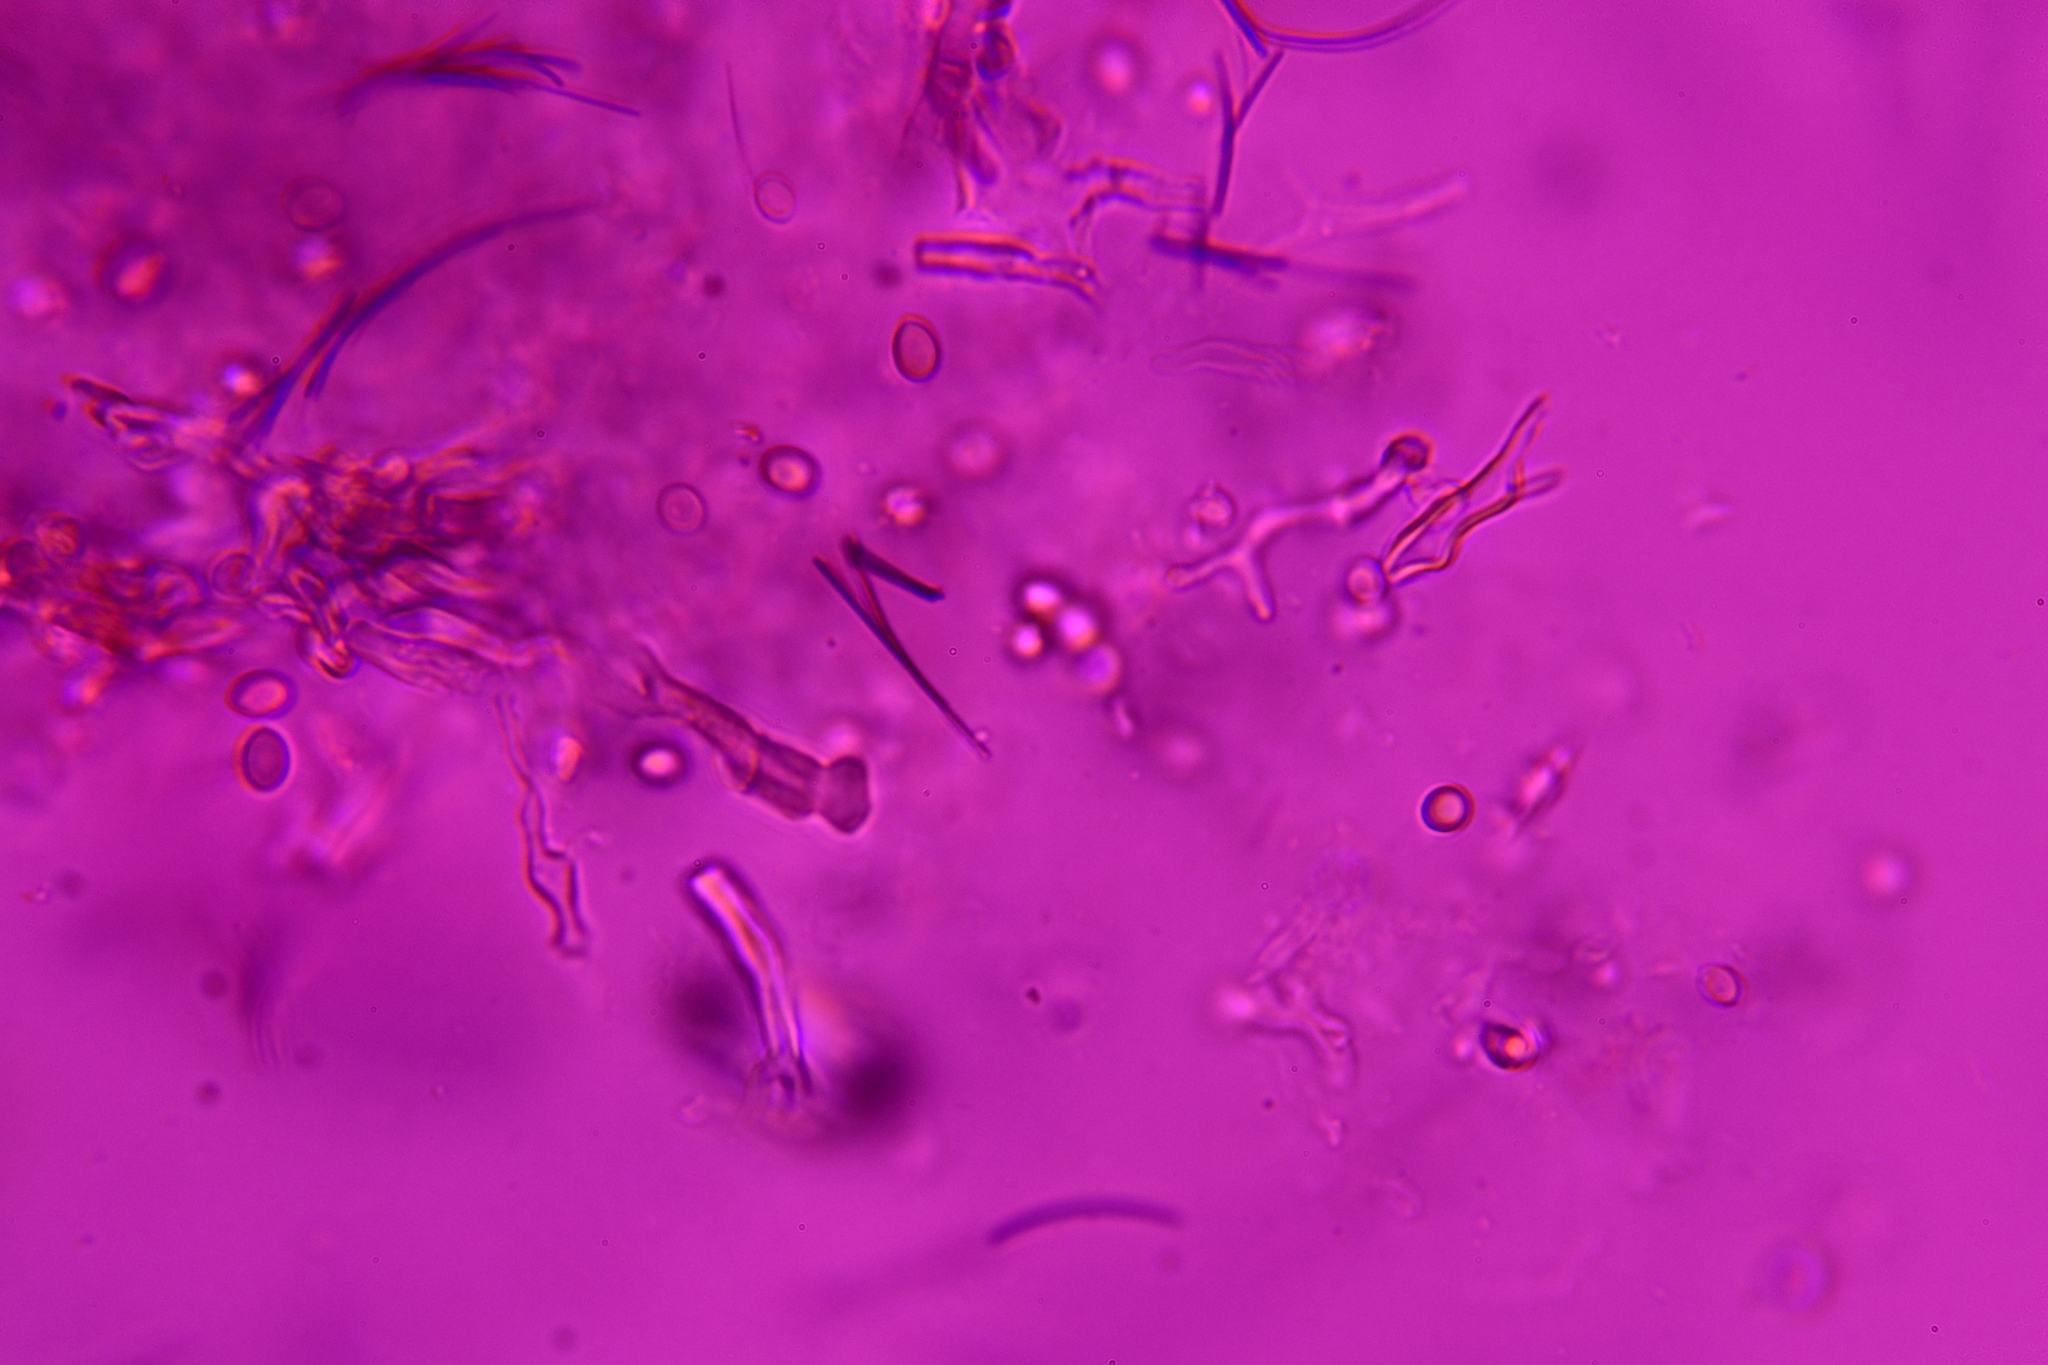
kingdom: Fungi
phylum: Basidiomycota
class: Agaricomycetes
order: Agaricales
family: Agaricaceae
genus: Nidularia
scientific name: Nidularia pulvinata
